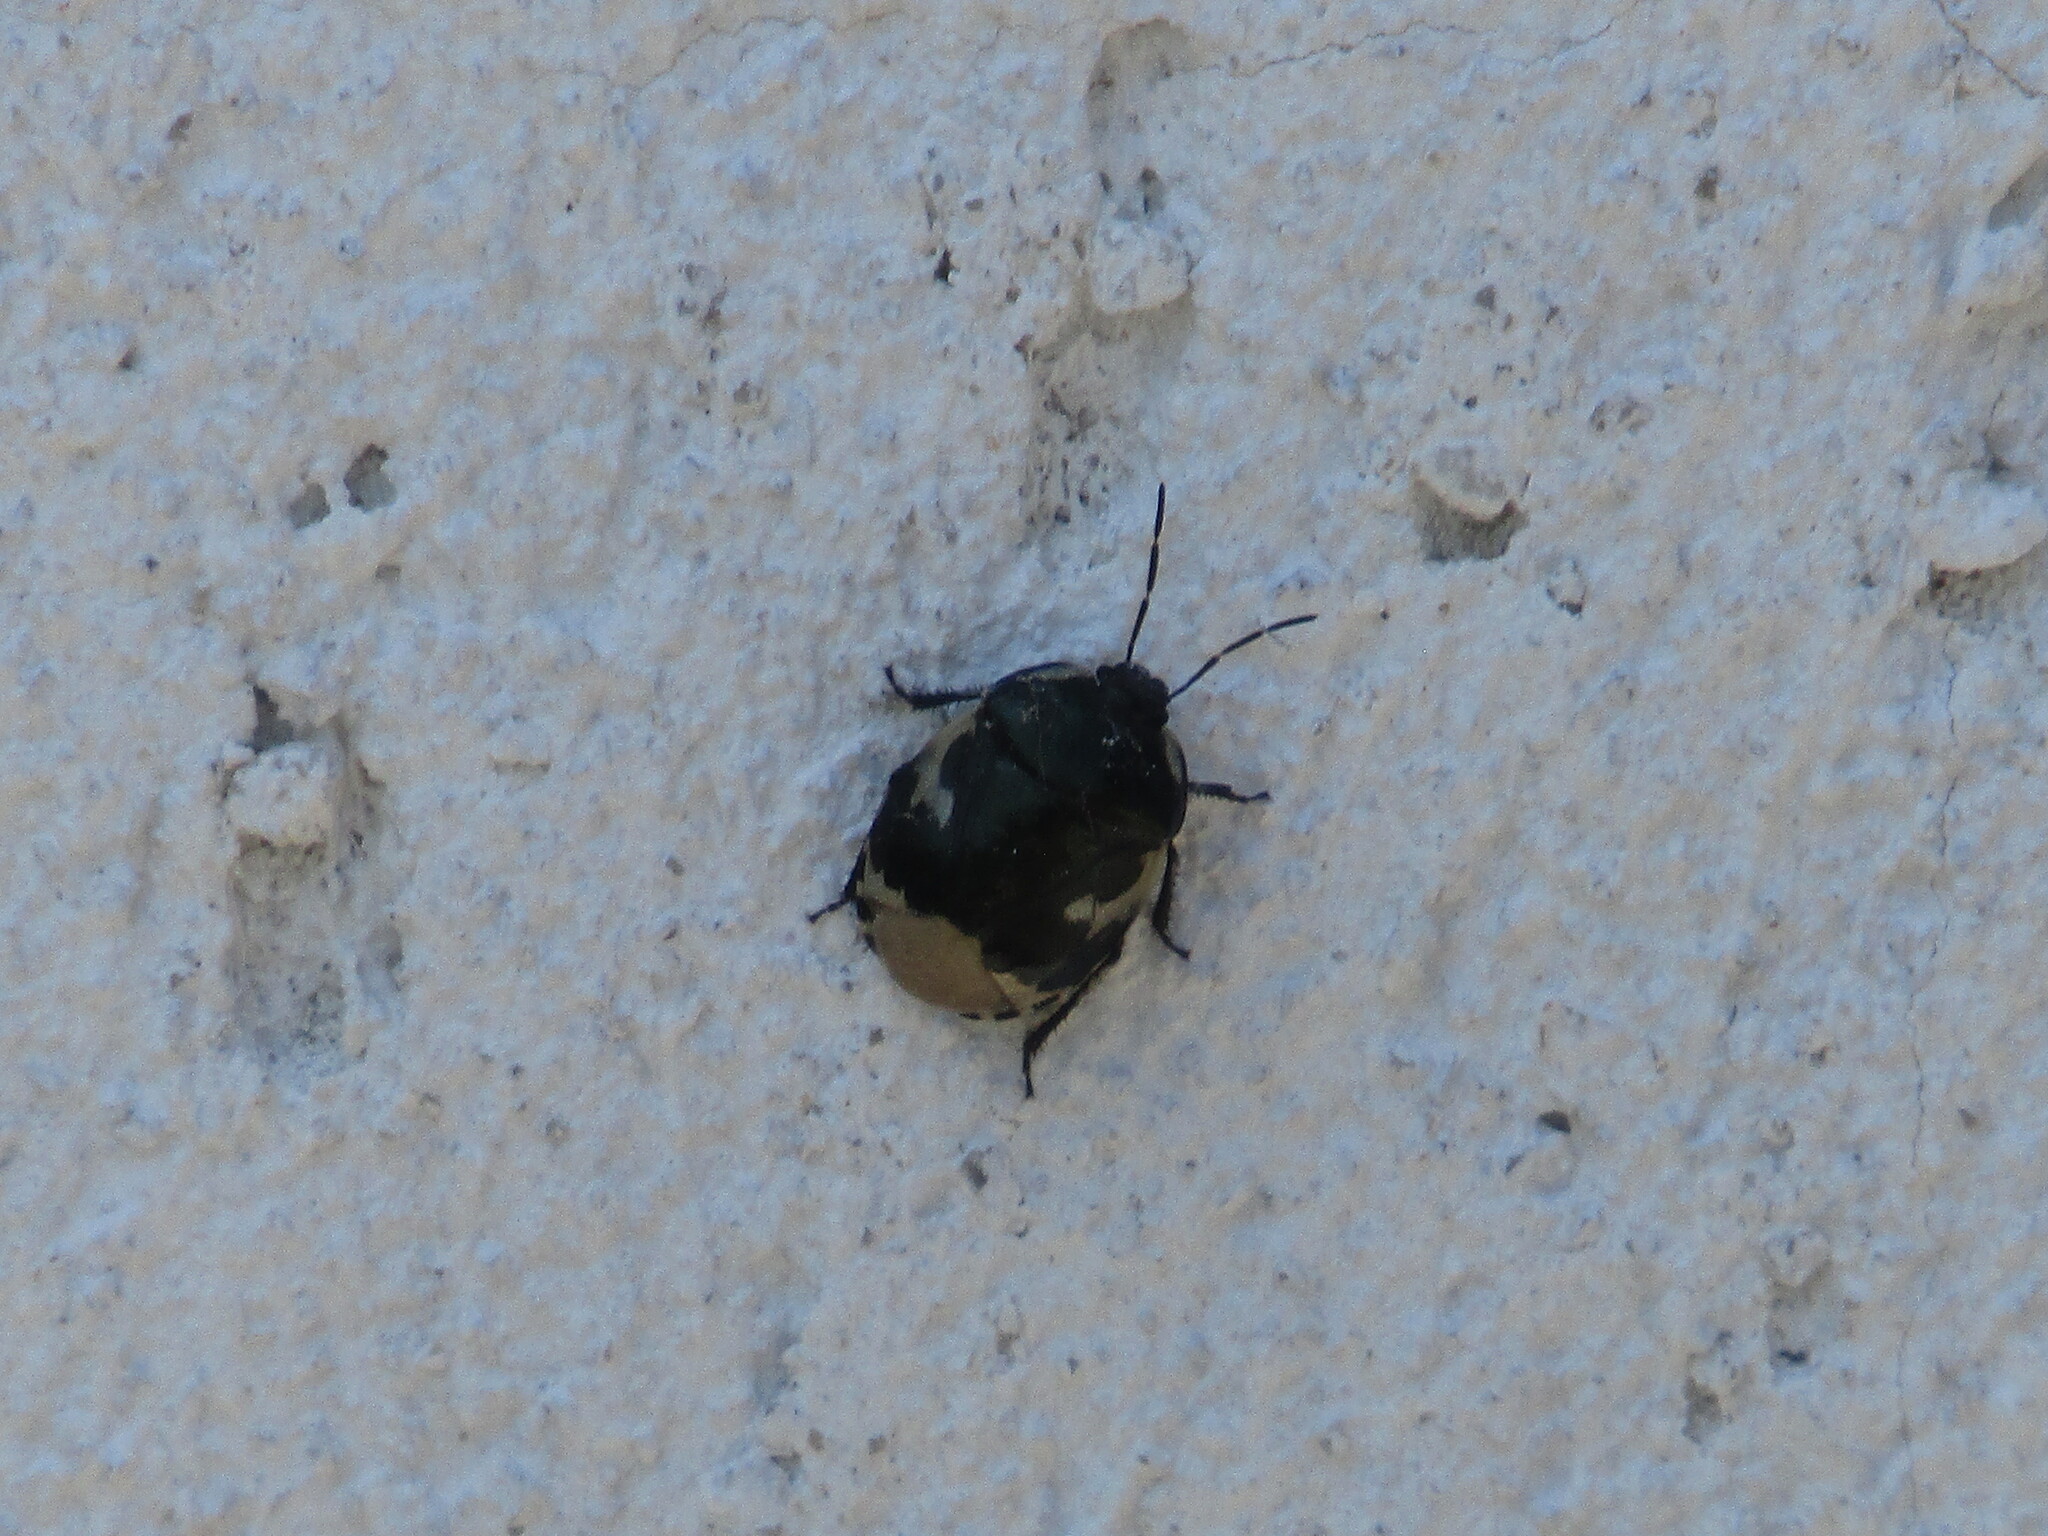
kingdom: Animalia
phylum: Arthropoda
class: Insecta
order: Hemiptera
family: Cydnidae
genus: Tritomegas
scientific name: Tritomegas bicolor
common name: Pied shieldbug
